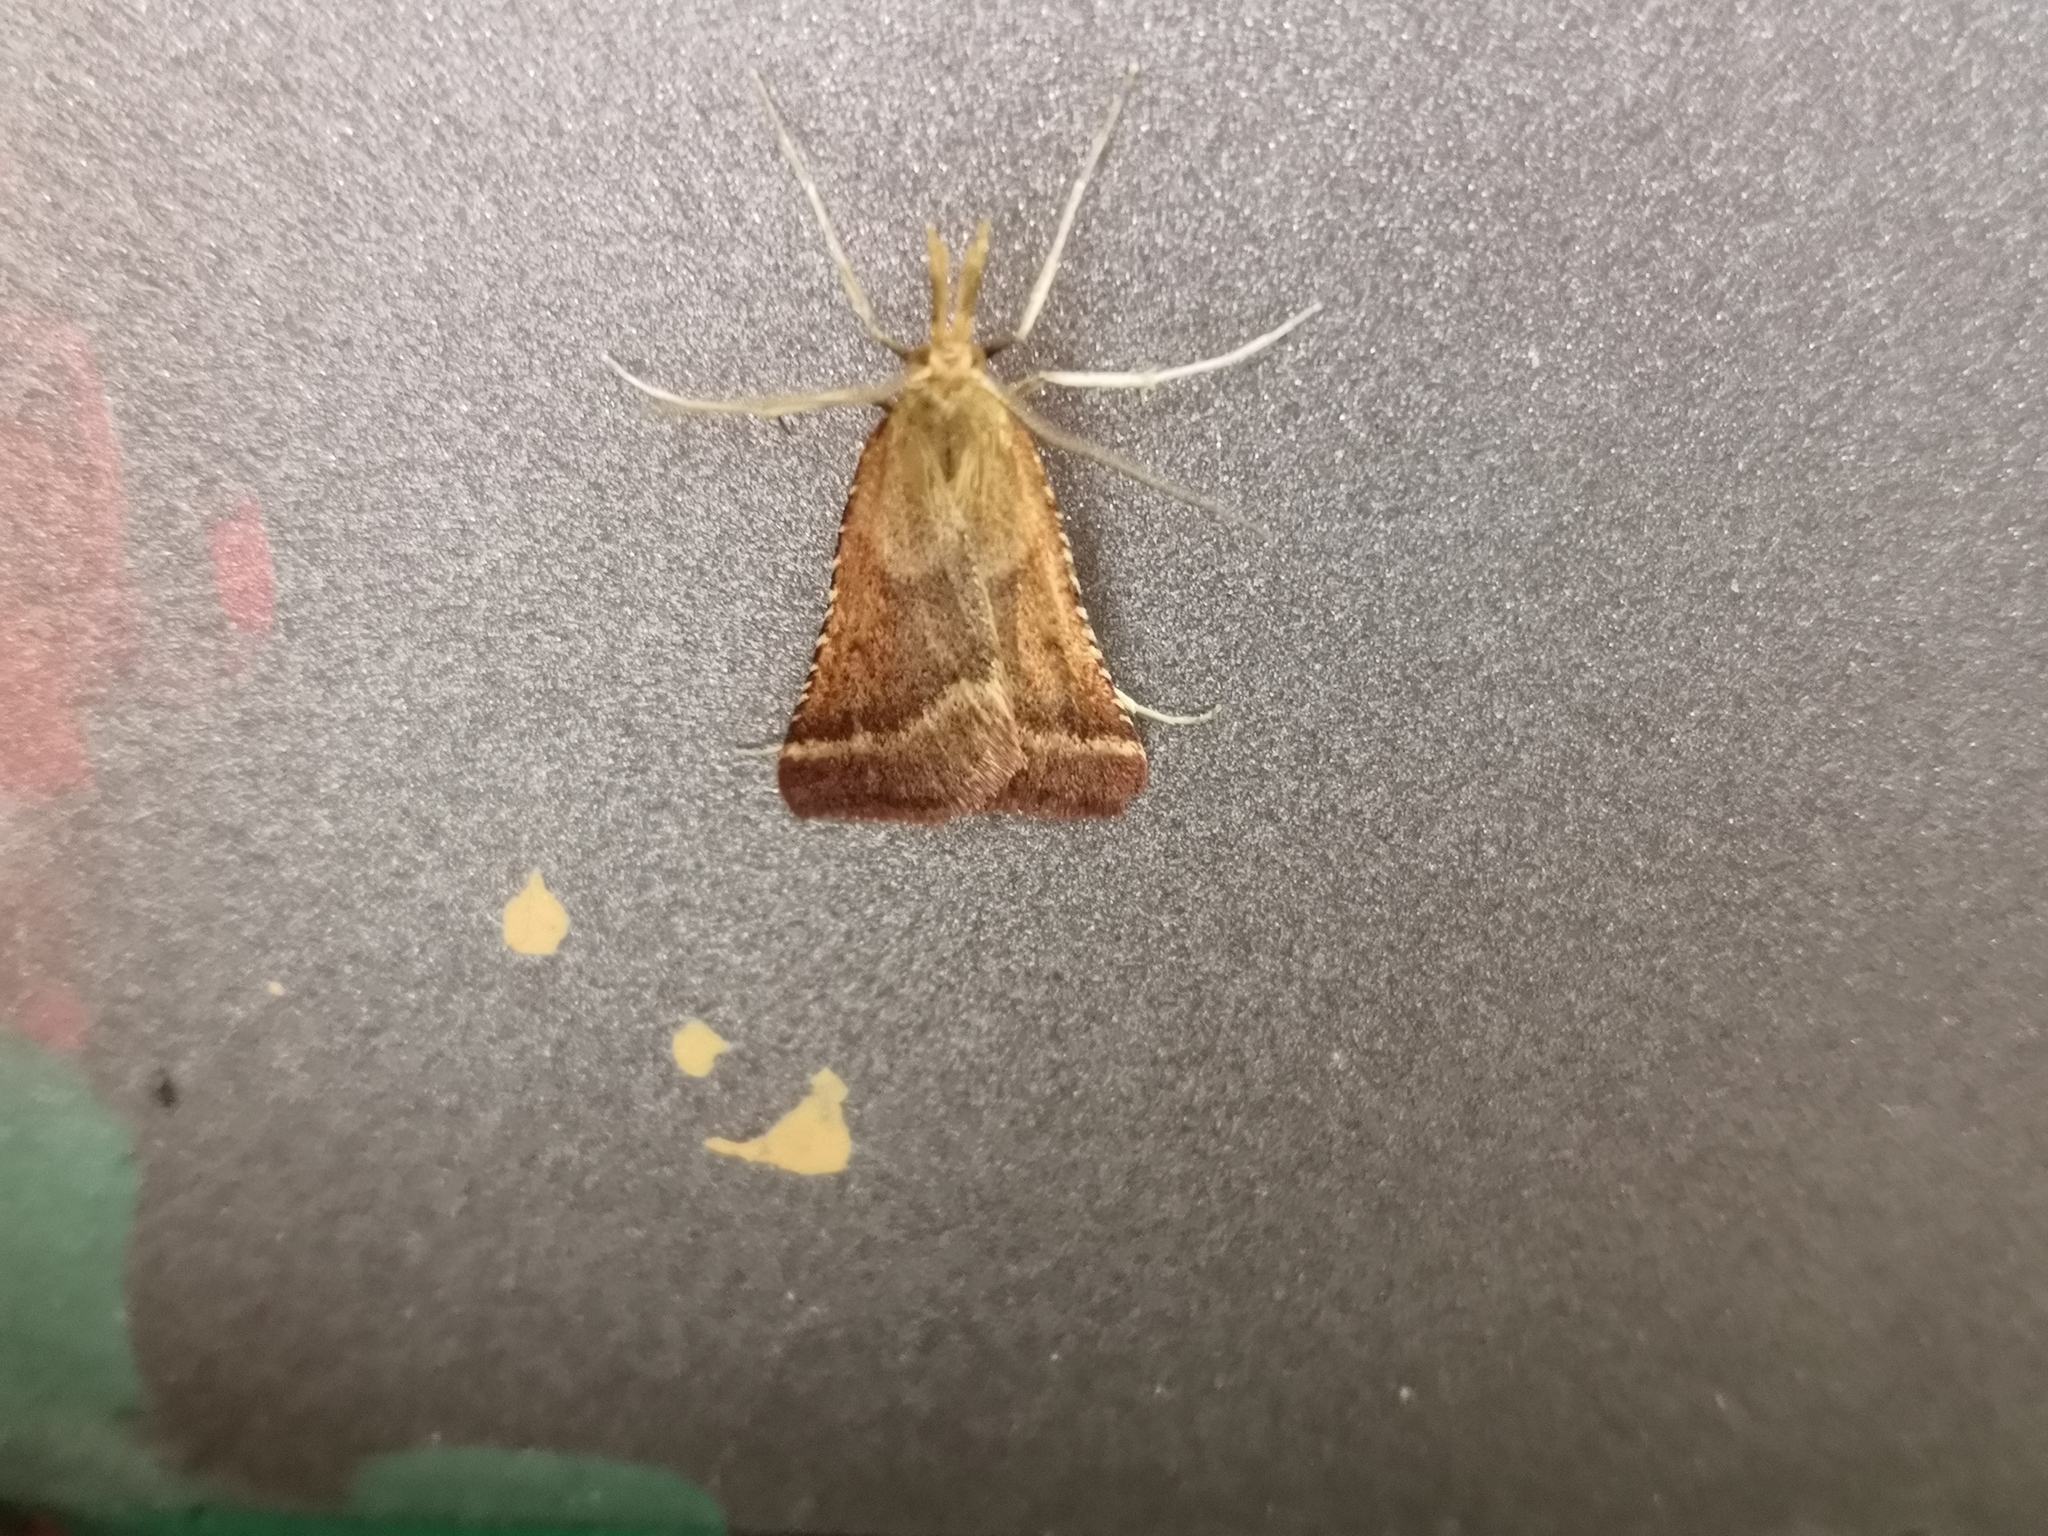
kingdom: Animalia
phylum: Arthropoda
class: Insecta
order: Lepidoptera
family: Pyralidae
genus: Synaphe
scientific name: Synaphe punctalis
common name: Long-legged tabby
